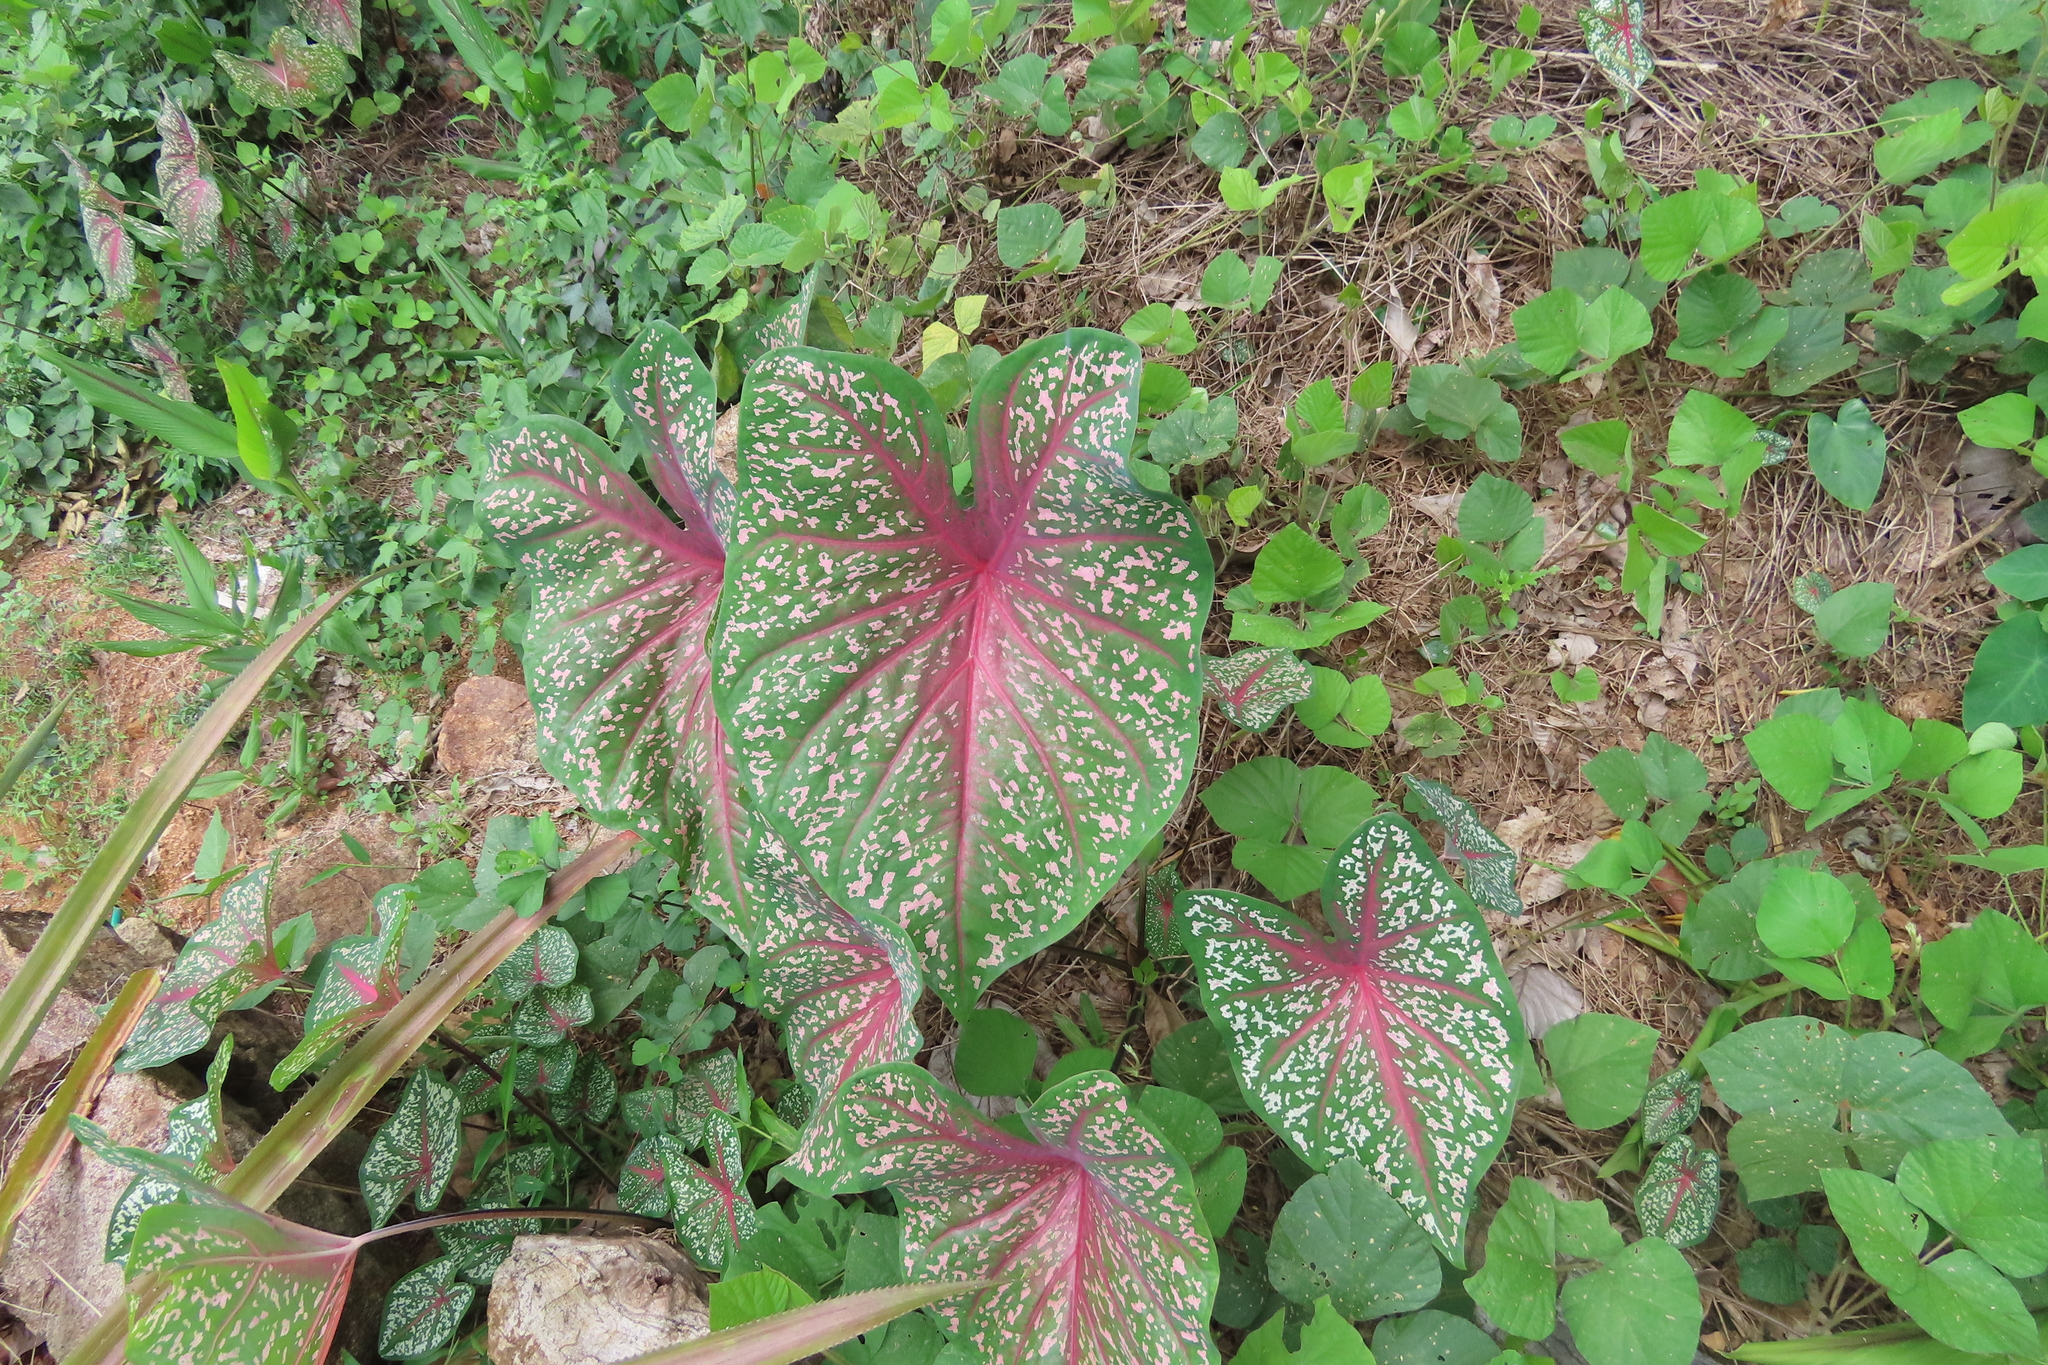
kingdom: Plantae
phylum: Tracheophyta
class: Liliopsida
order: Alismatales
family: Araceae
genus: Caladium
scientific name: Caladium bicolor
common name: Artist's pallet
